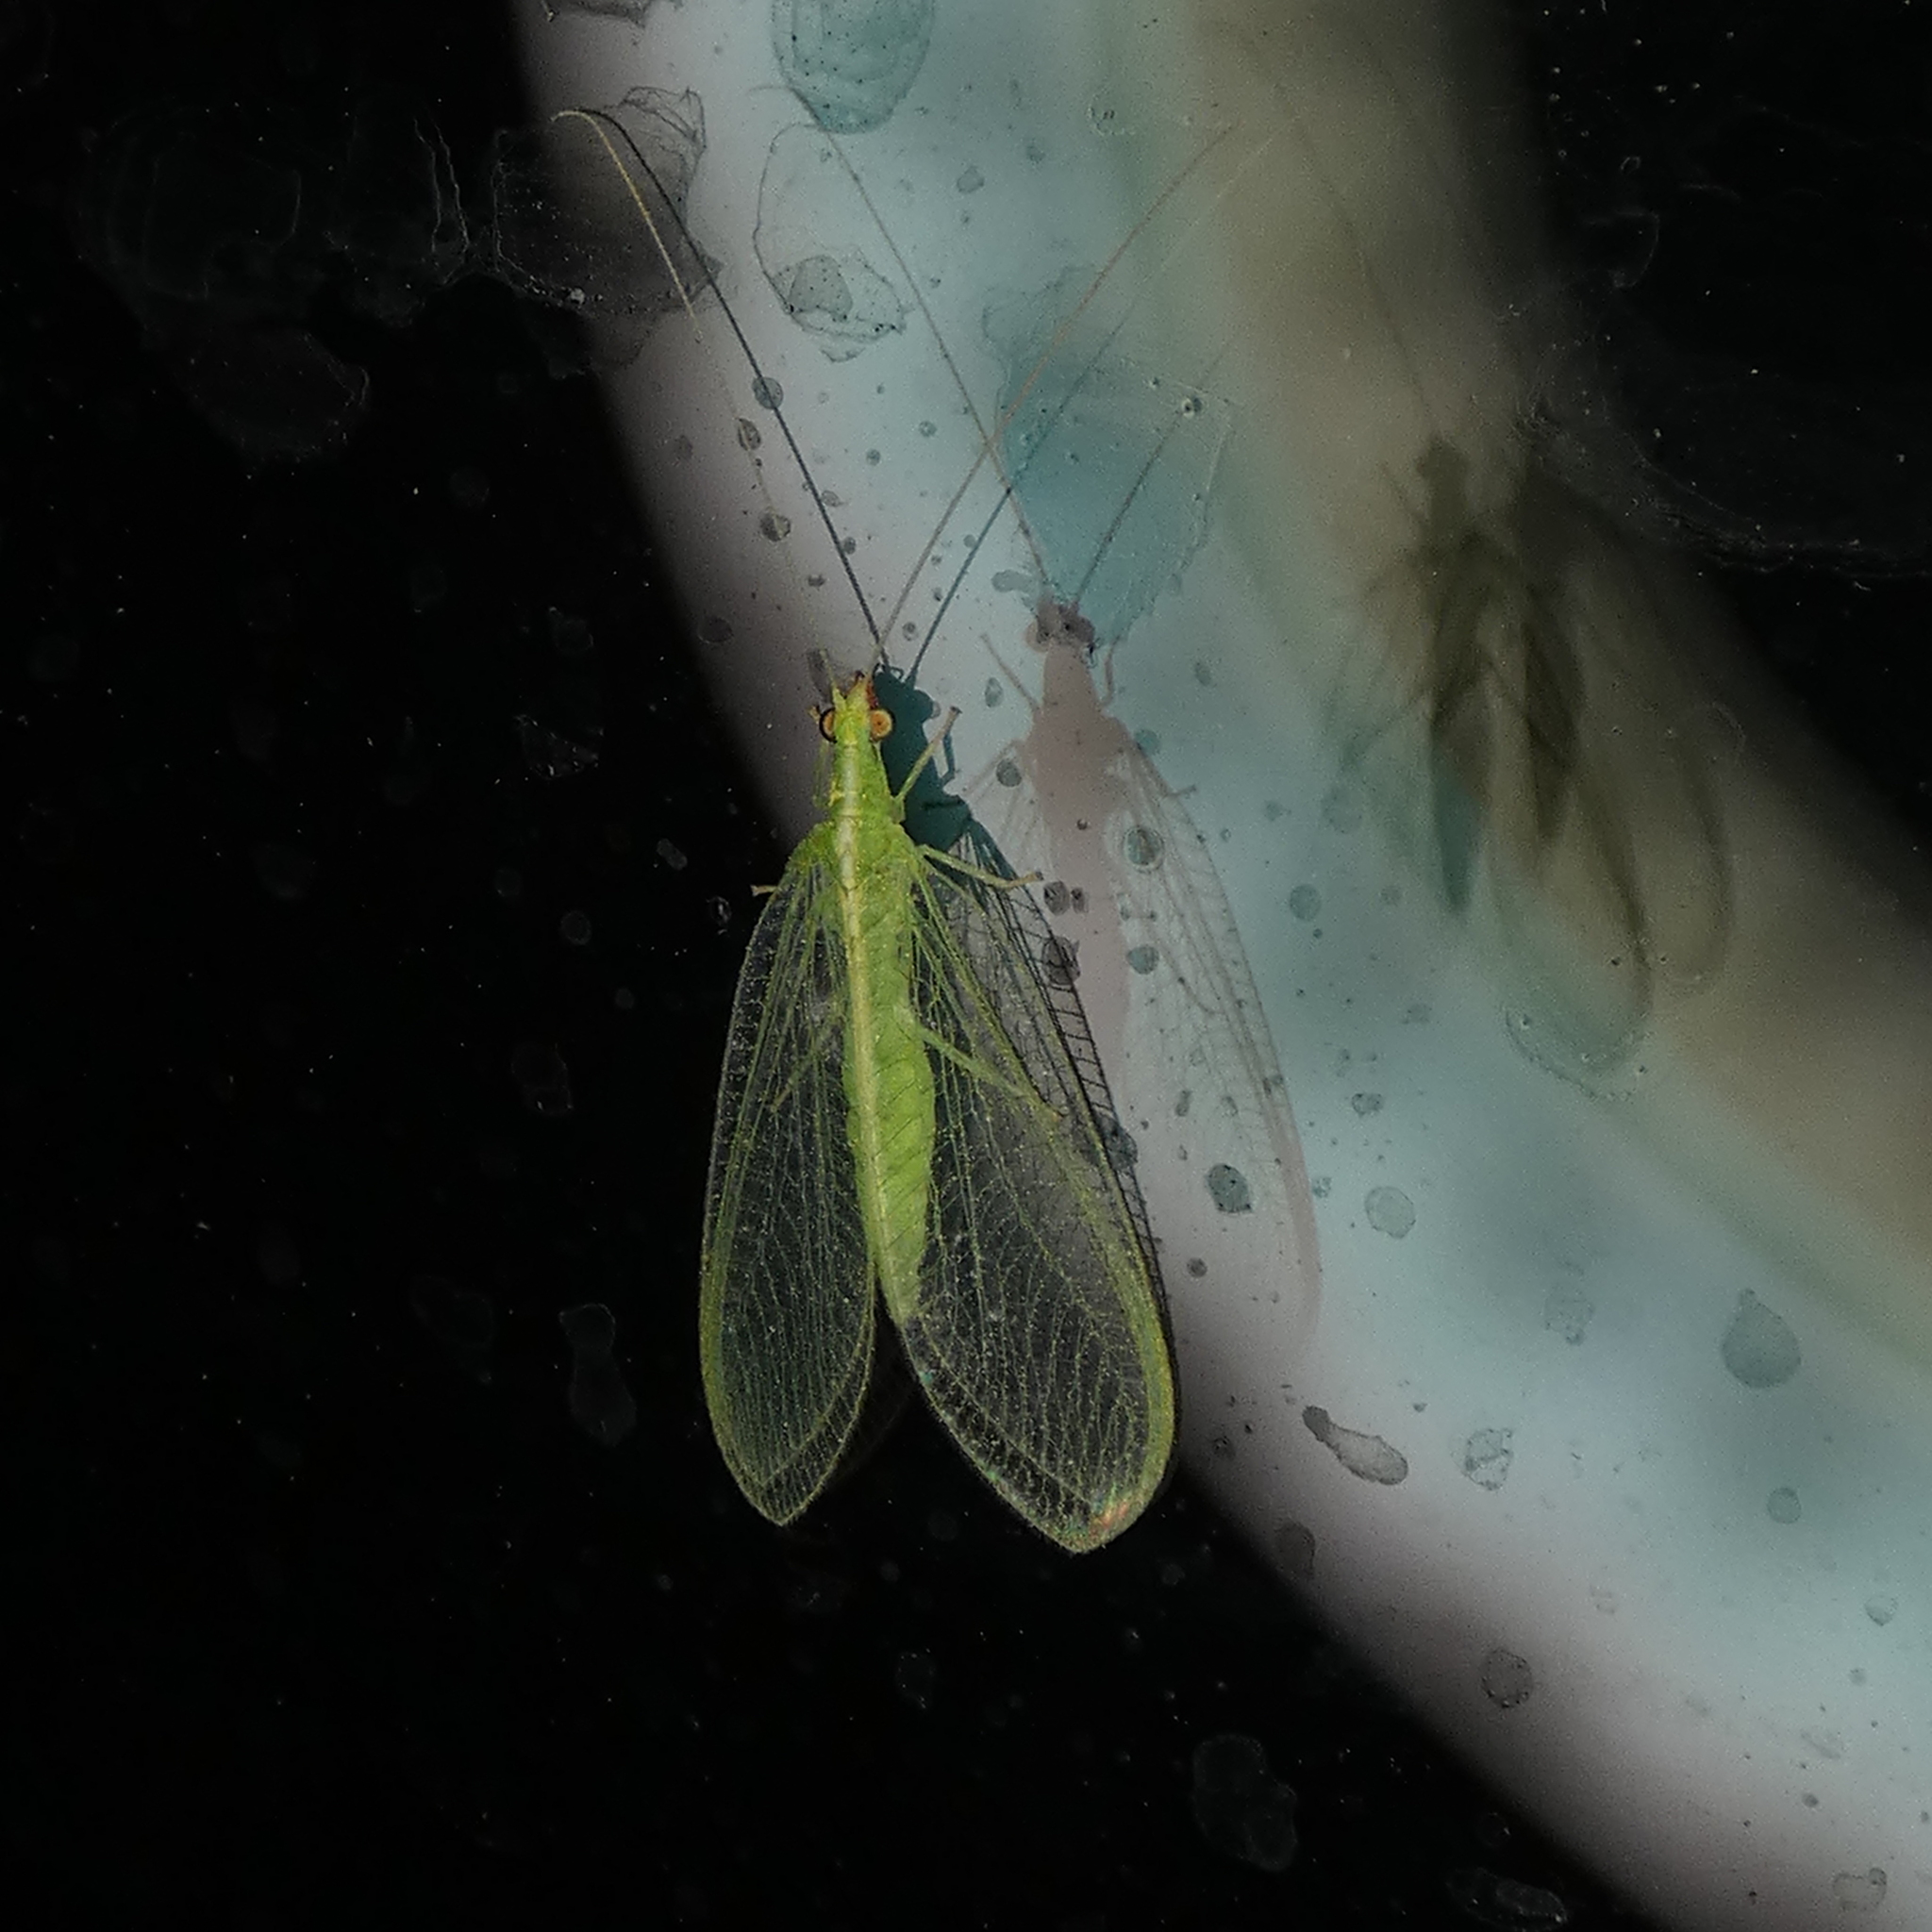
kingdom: Animalia
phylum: Arthropoda
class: Insecta
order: Neuroptera
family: Chrysopidae
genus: Chrysoperla
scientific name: Chrysoperla rufilabris
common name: Red-lipped green lacewing
